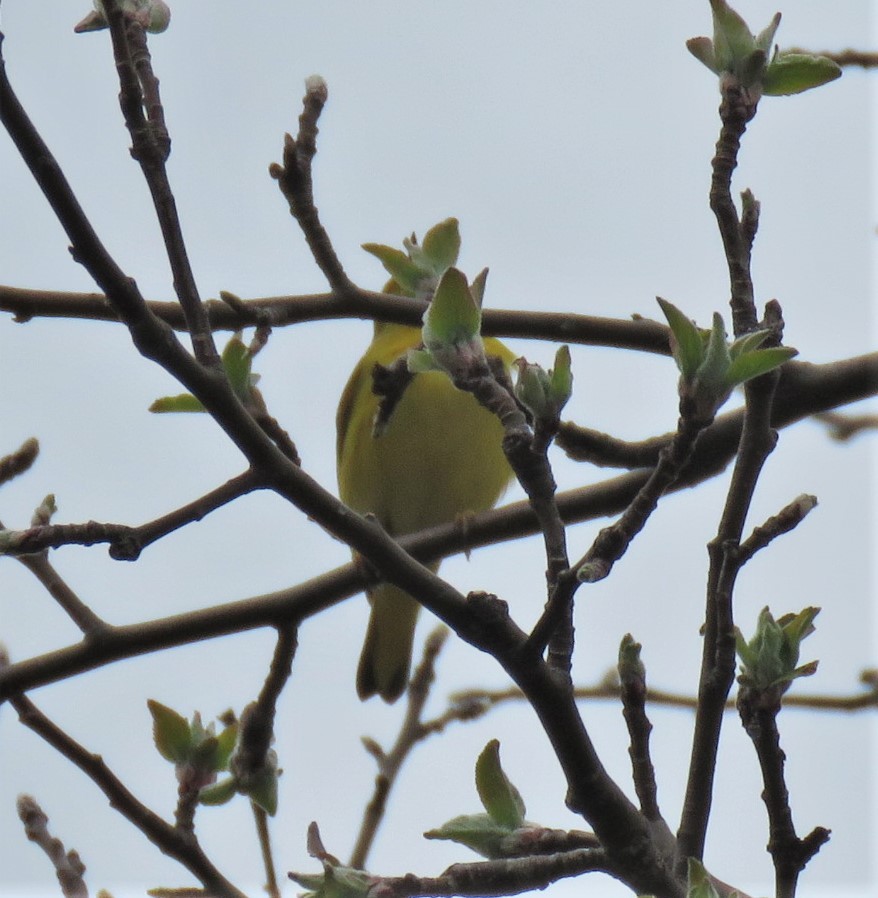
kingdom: Animalia
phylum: Chordata
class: Aves
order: Passeriformes
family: Parulidae
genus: Setophaga
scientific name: Setophaga petechia
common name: Yellow warbler
